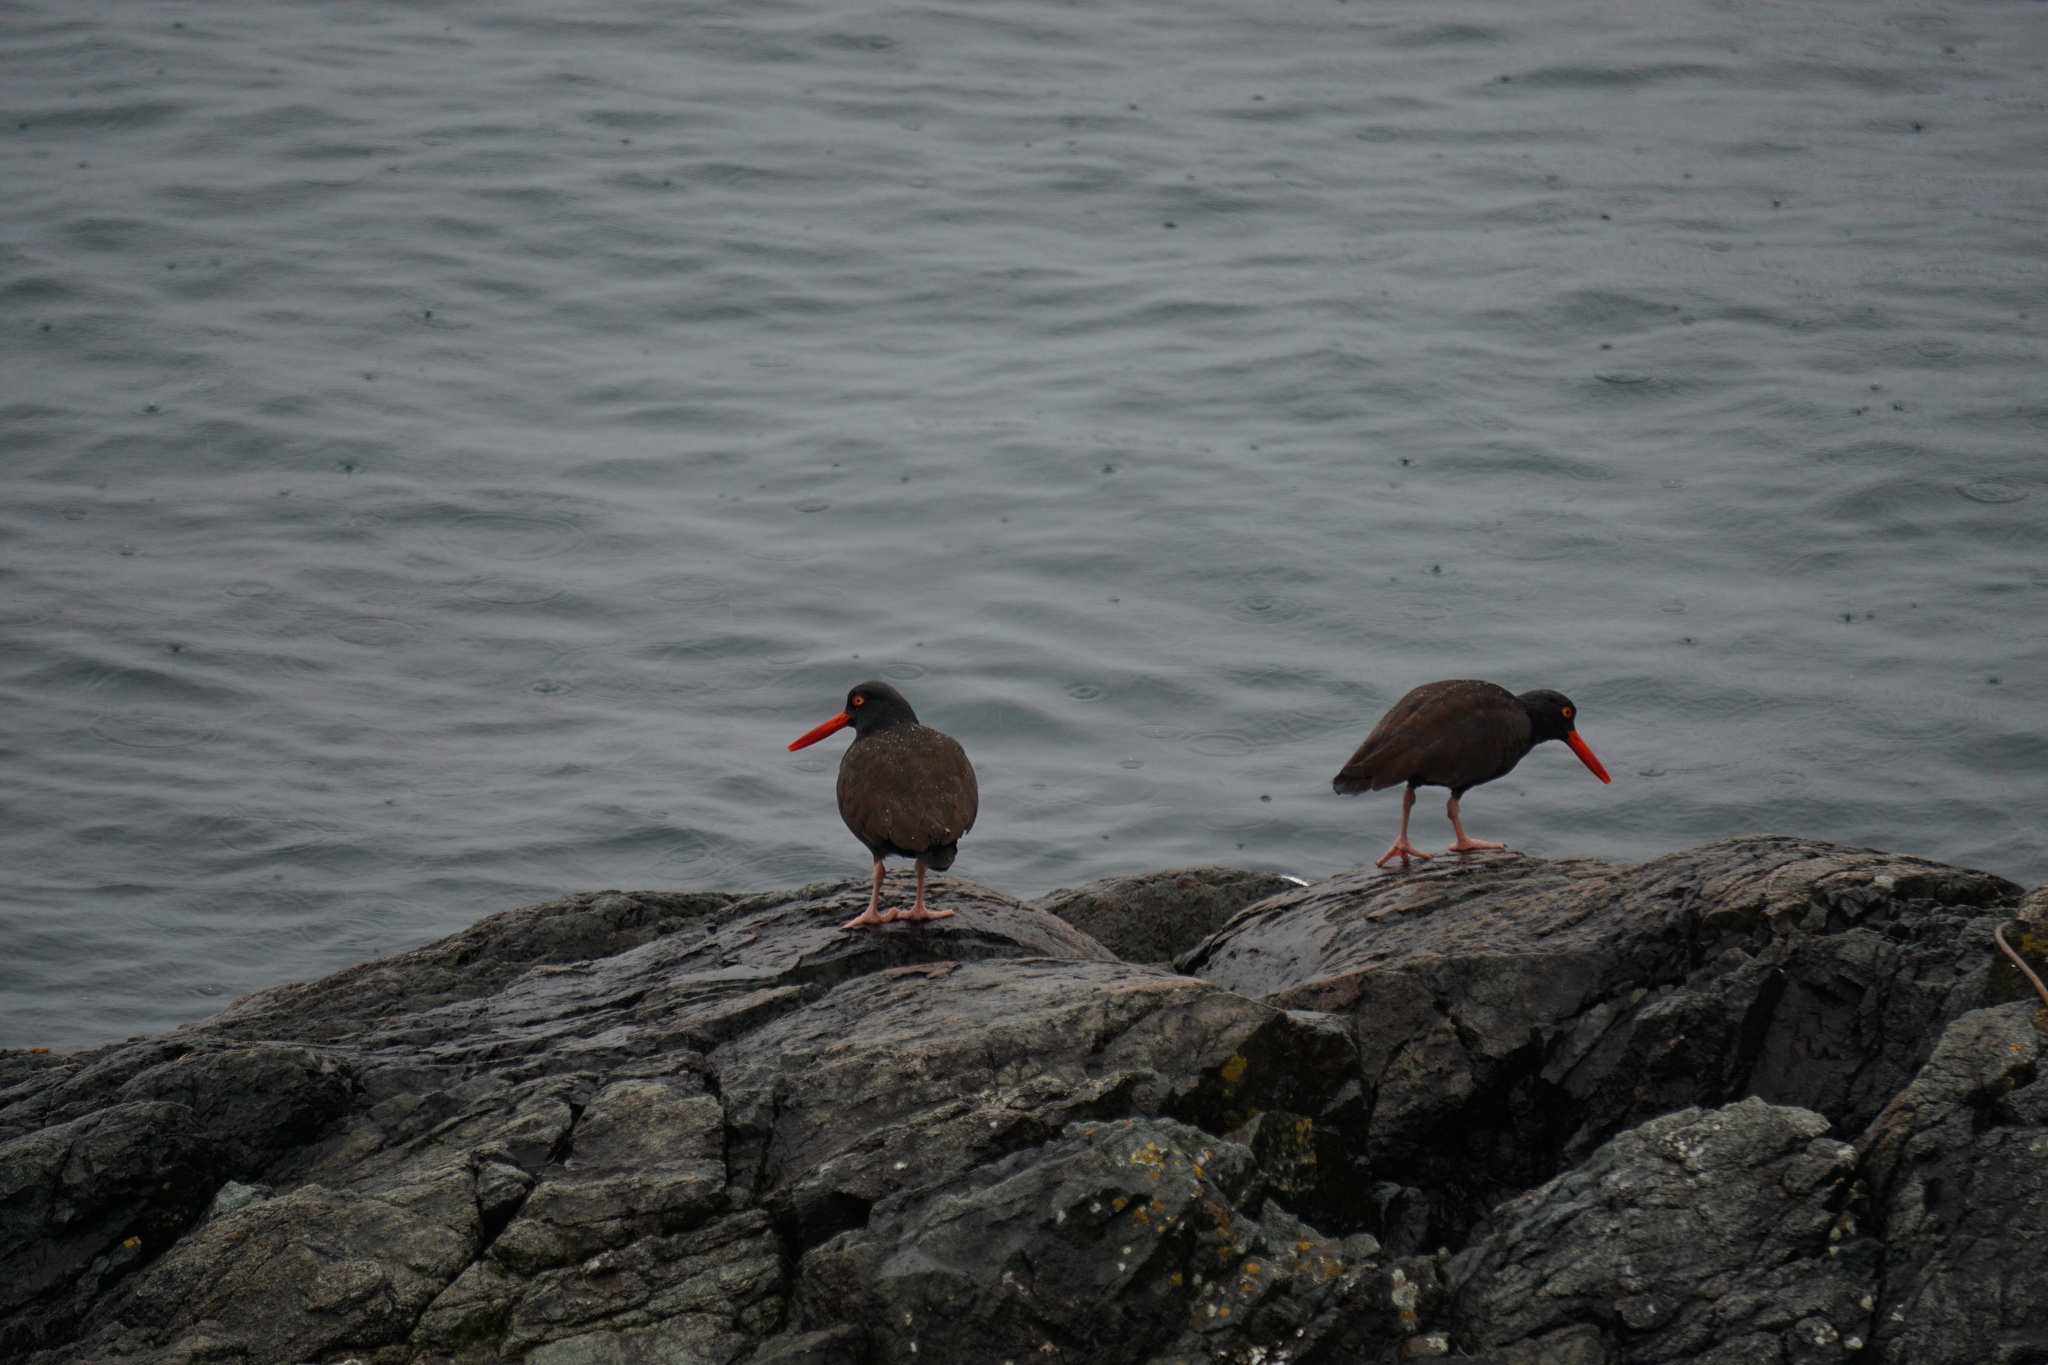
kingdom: Animalia
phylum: Chordata
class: Aves
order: Charadriiformes
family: Haematopodidae
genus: Haematopus
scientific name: Haematopus bachmani
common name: Black oystercatcher
